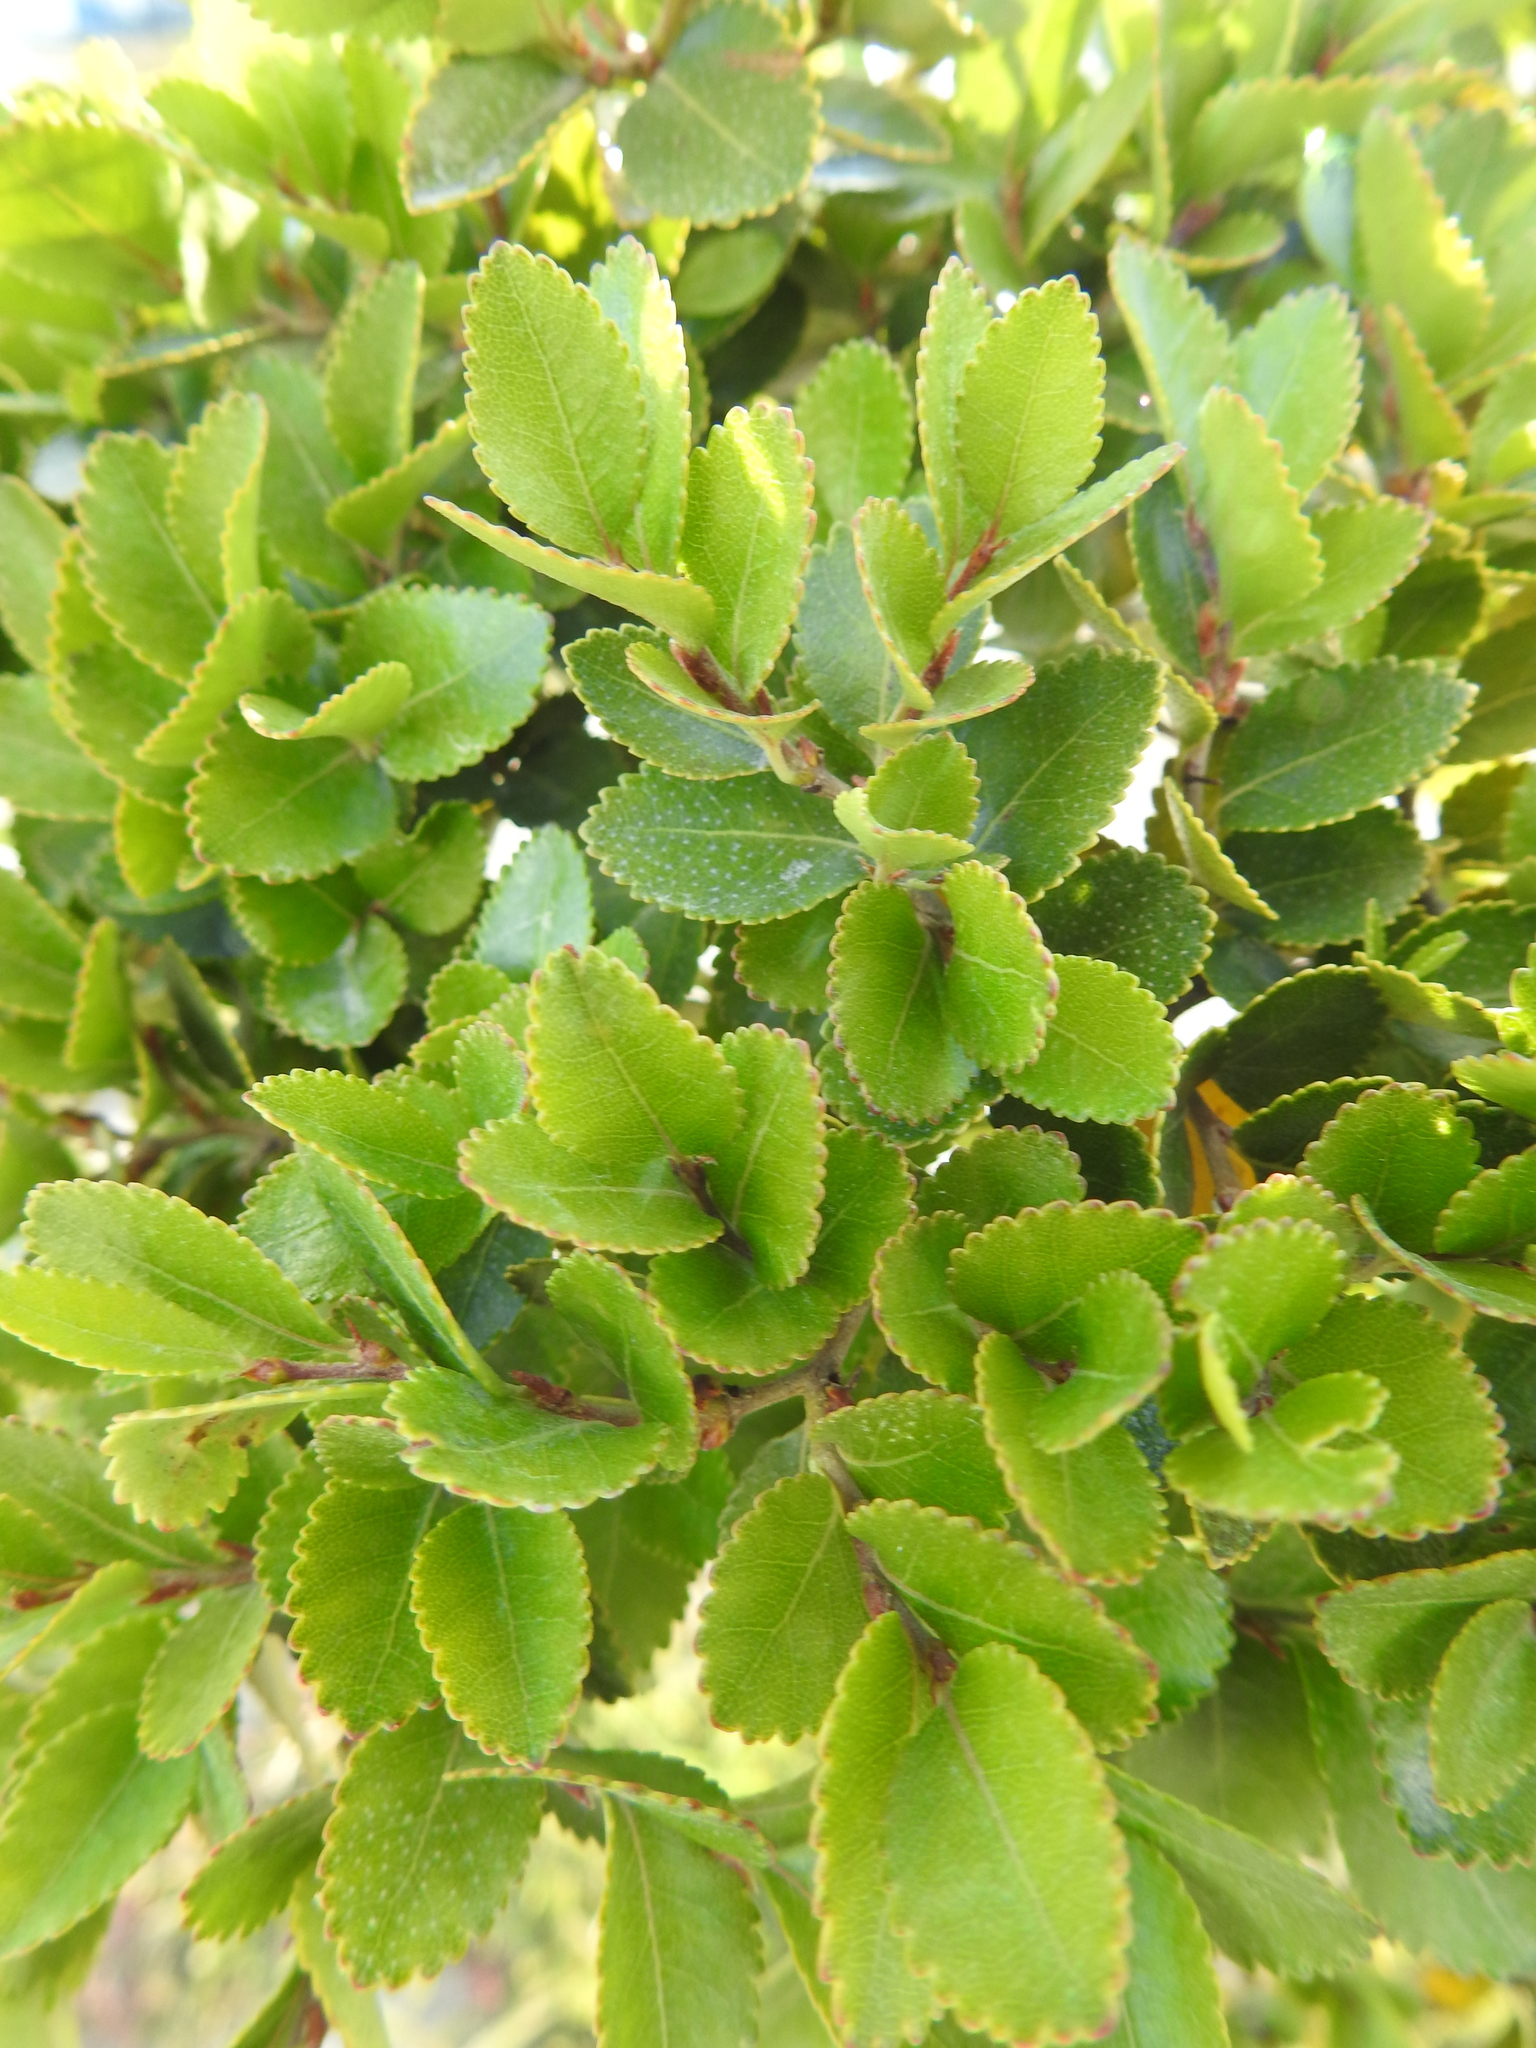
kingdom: Plantae
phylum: Tracheophyta
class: Magnoliopsida
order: Fagales
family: Nothofagaceae
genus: Nothofagus
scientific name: Nothofagus betuloides
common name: Magellan's beech
